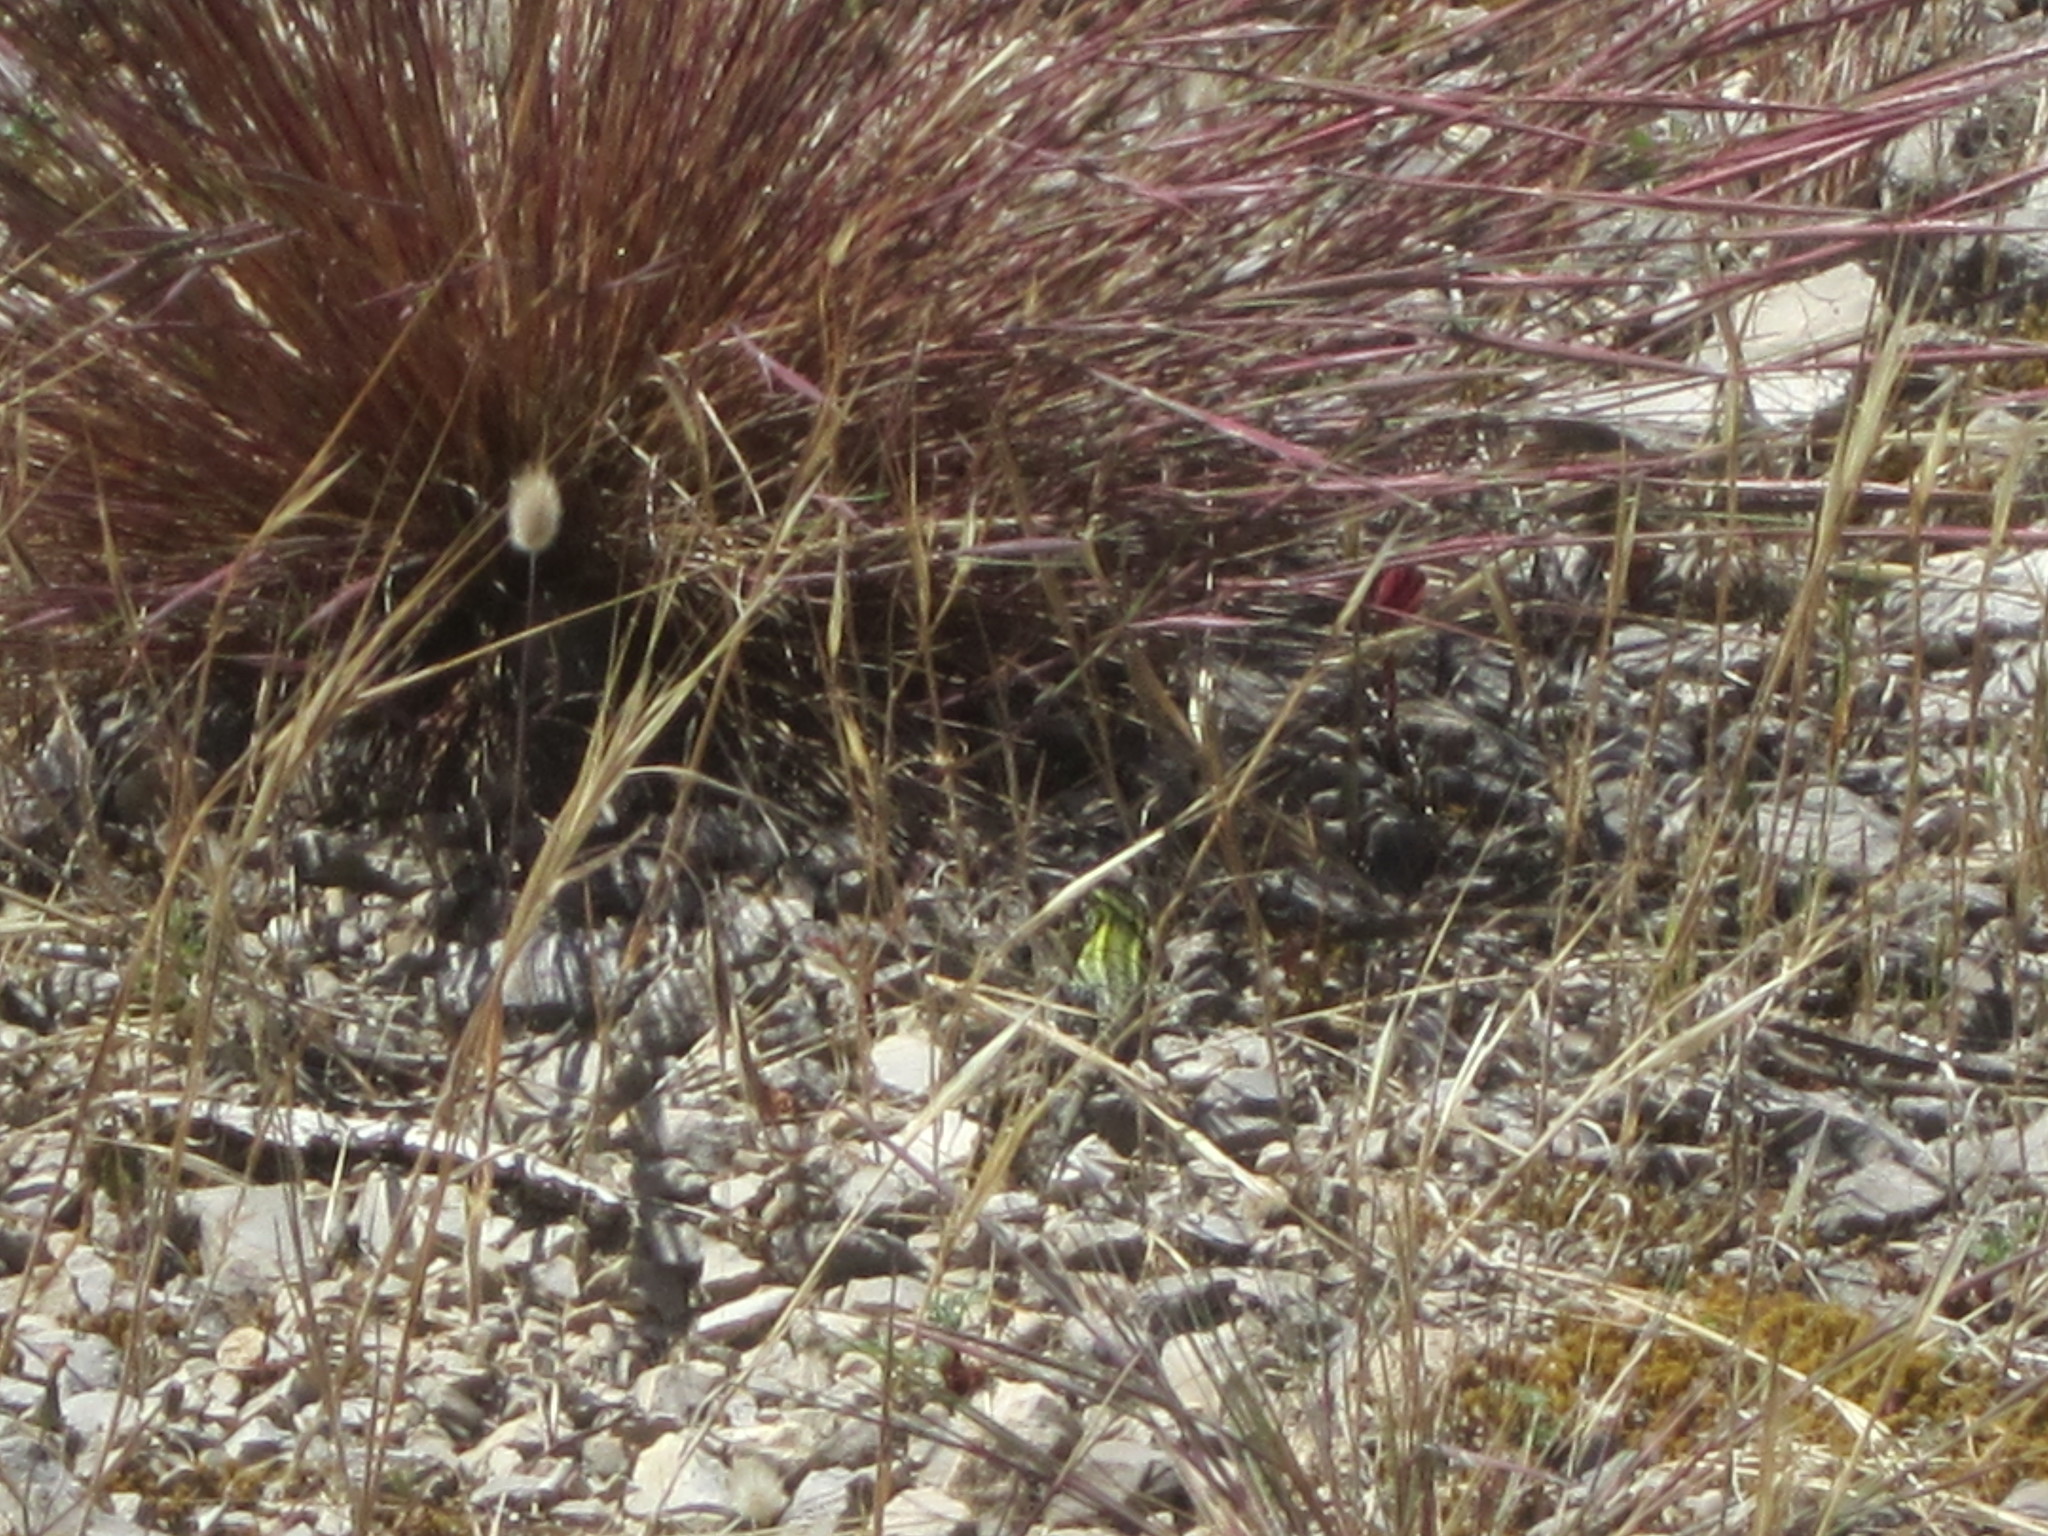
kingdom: Animalia
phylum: Chordata
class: Squamata
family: Lacertidae
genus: Podarcis
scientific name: Podarcis carbonelli
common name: Carbonelli's wall lizard
